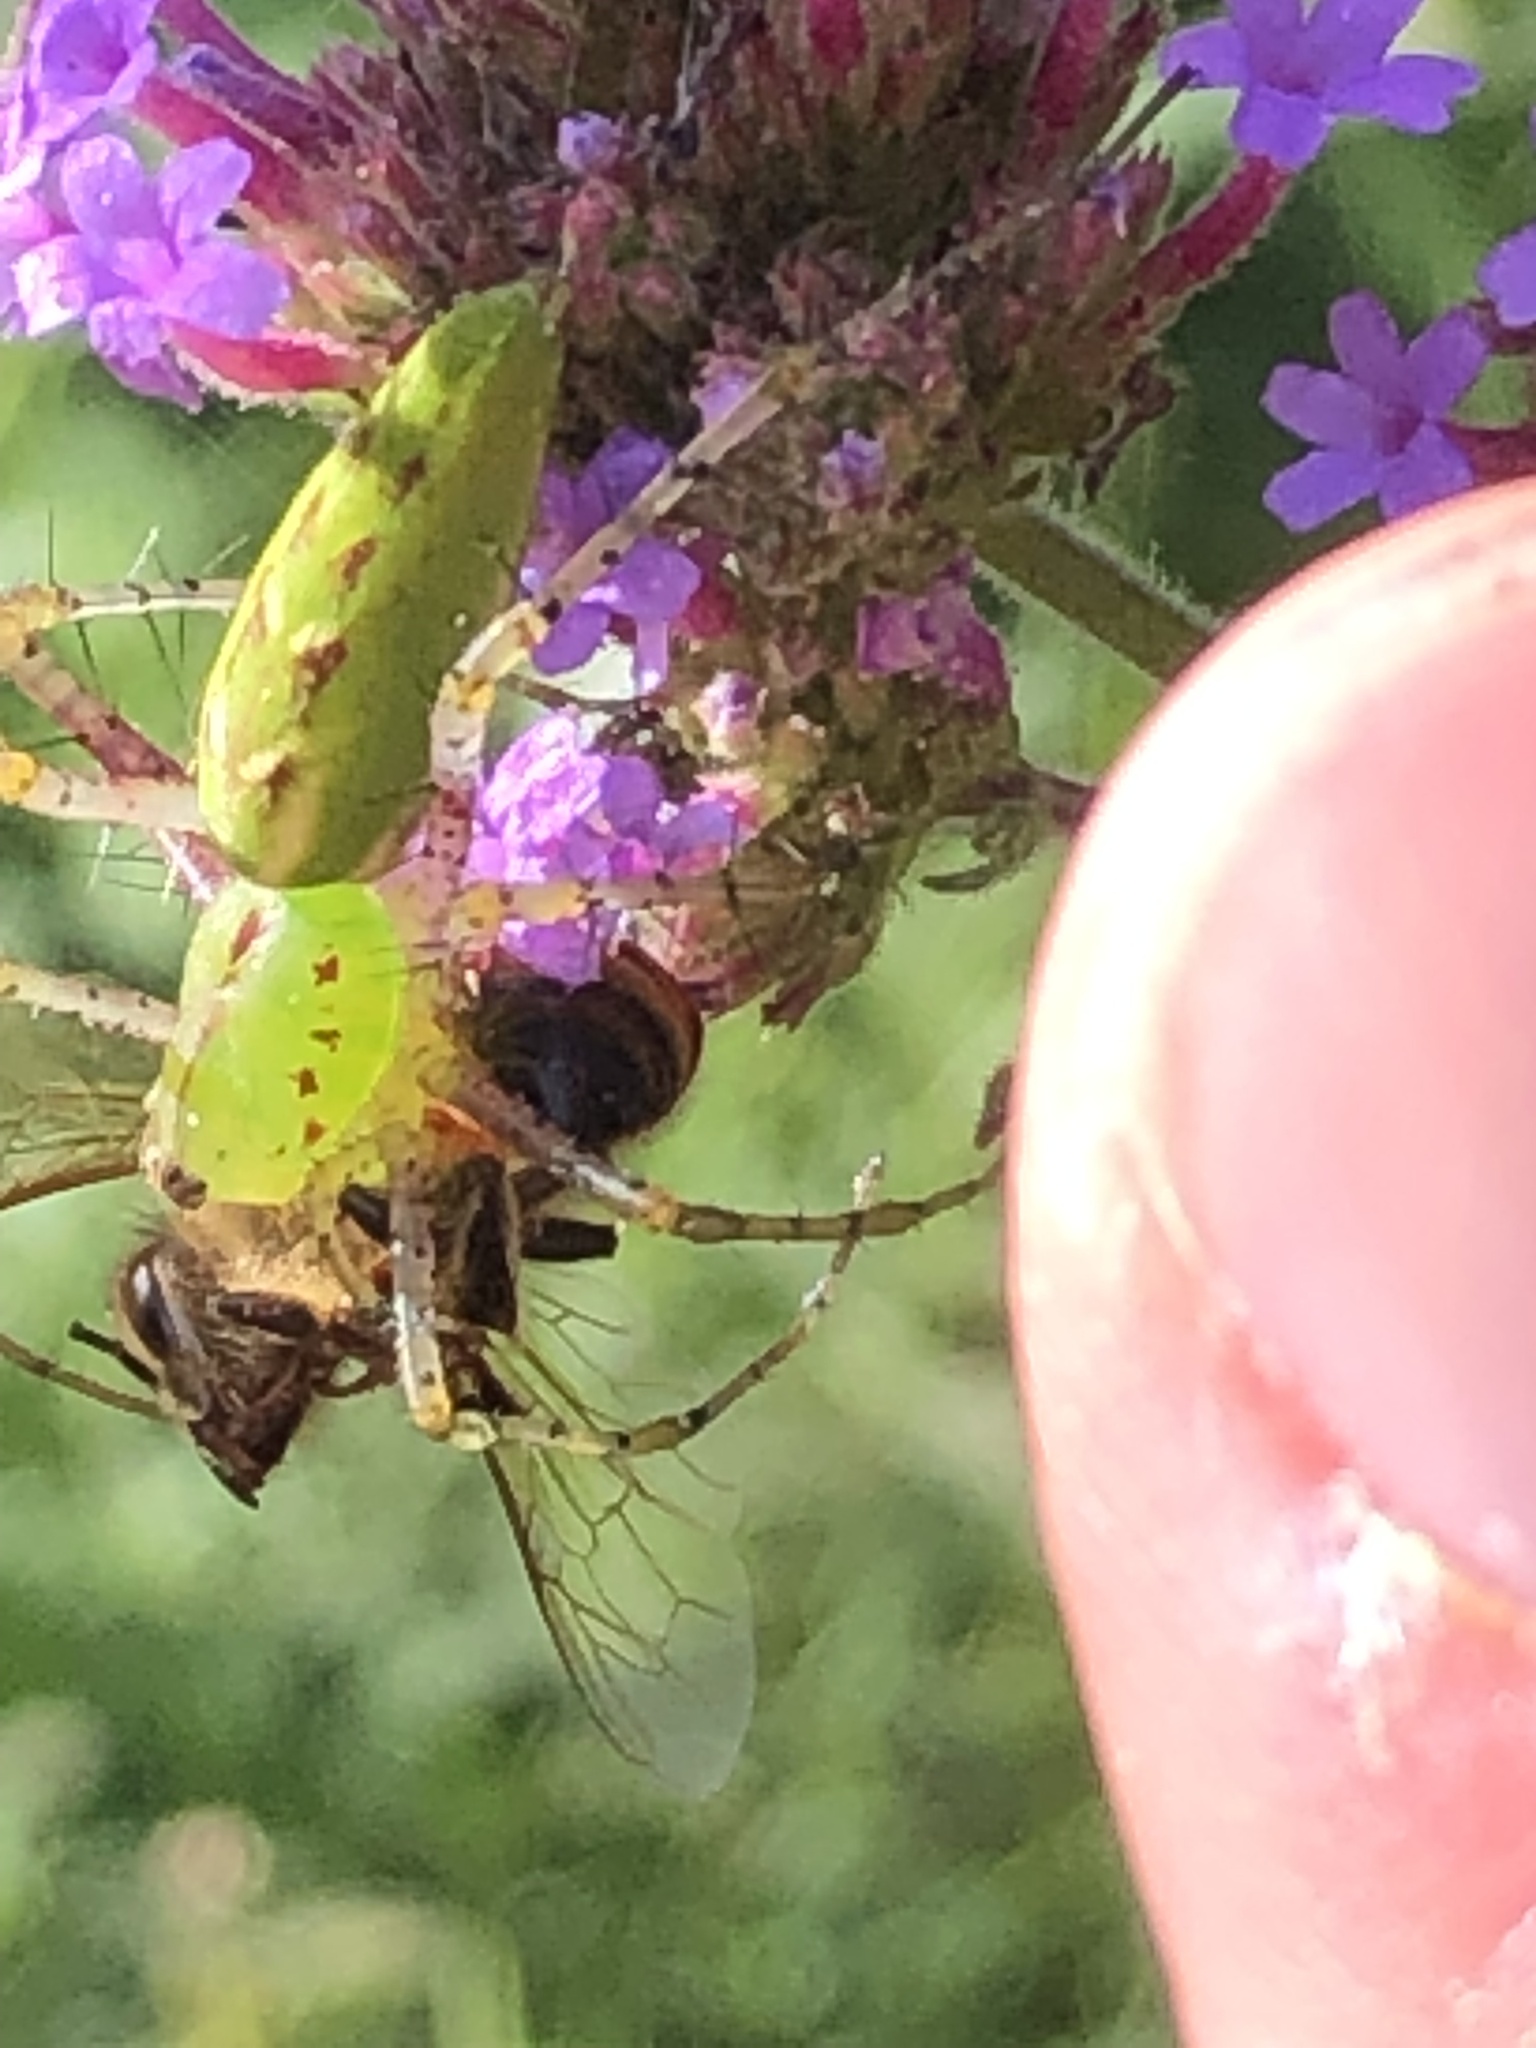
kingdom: Animalia
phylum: Arthropoda
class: Arachnida
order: Araneae
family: Oxyopidae
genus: Peucetia
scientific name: Peucetia viridans
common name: Lynx spiders
